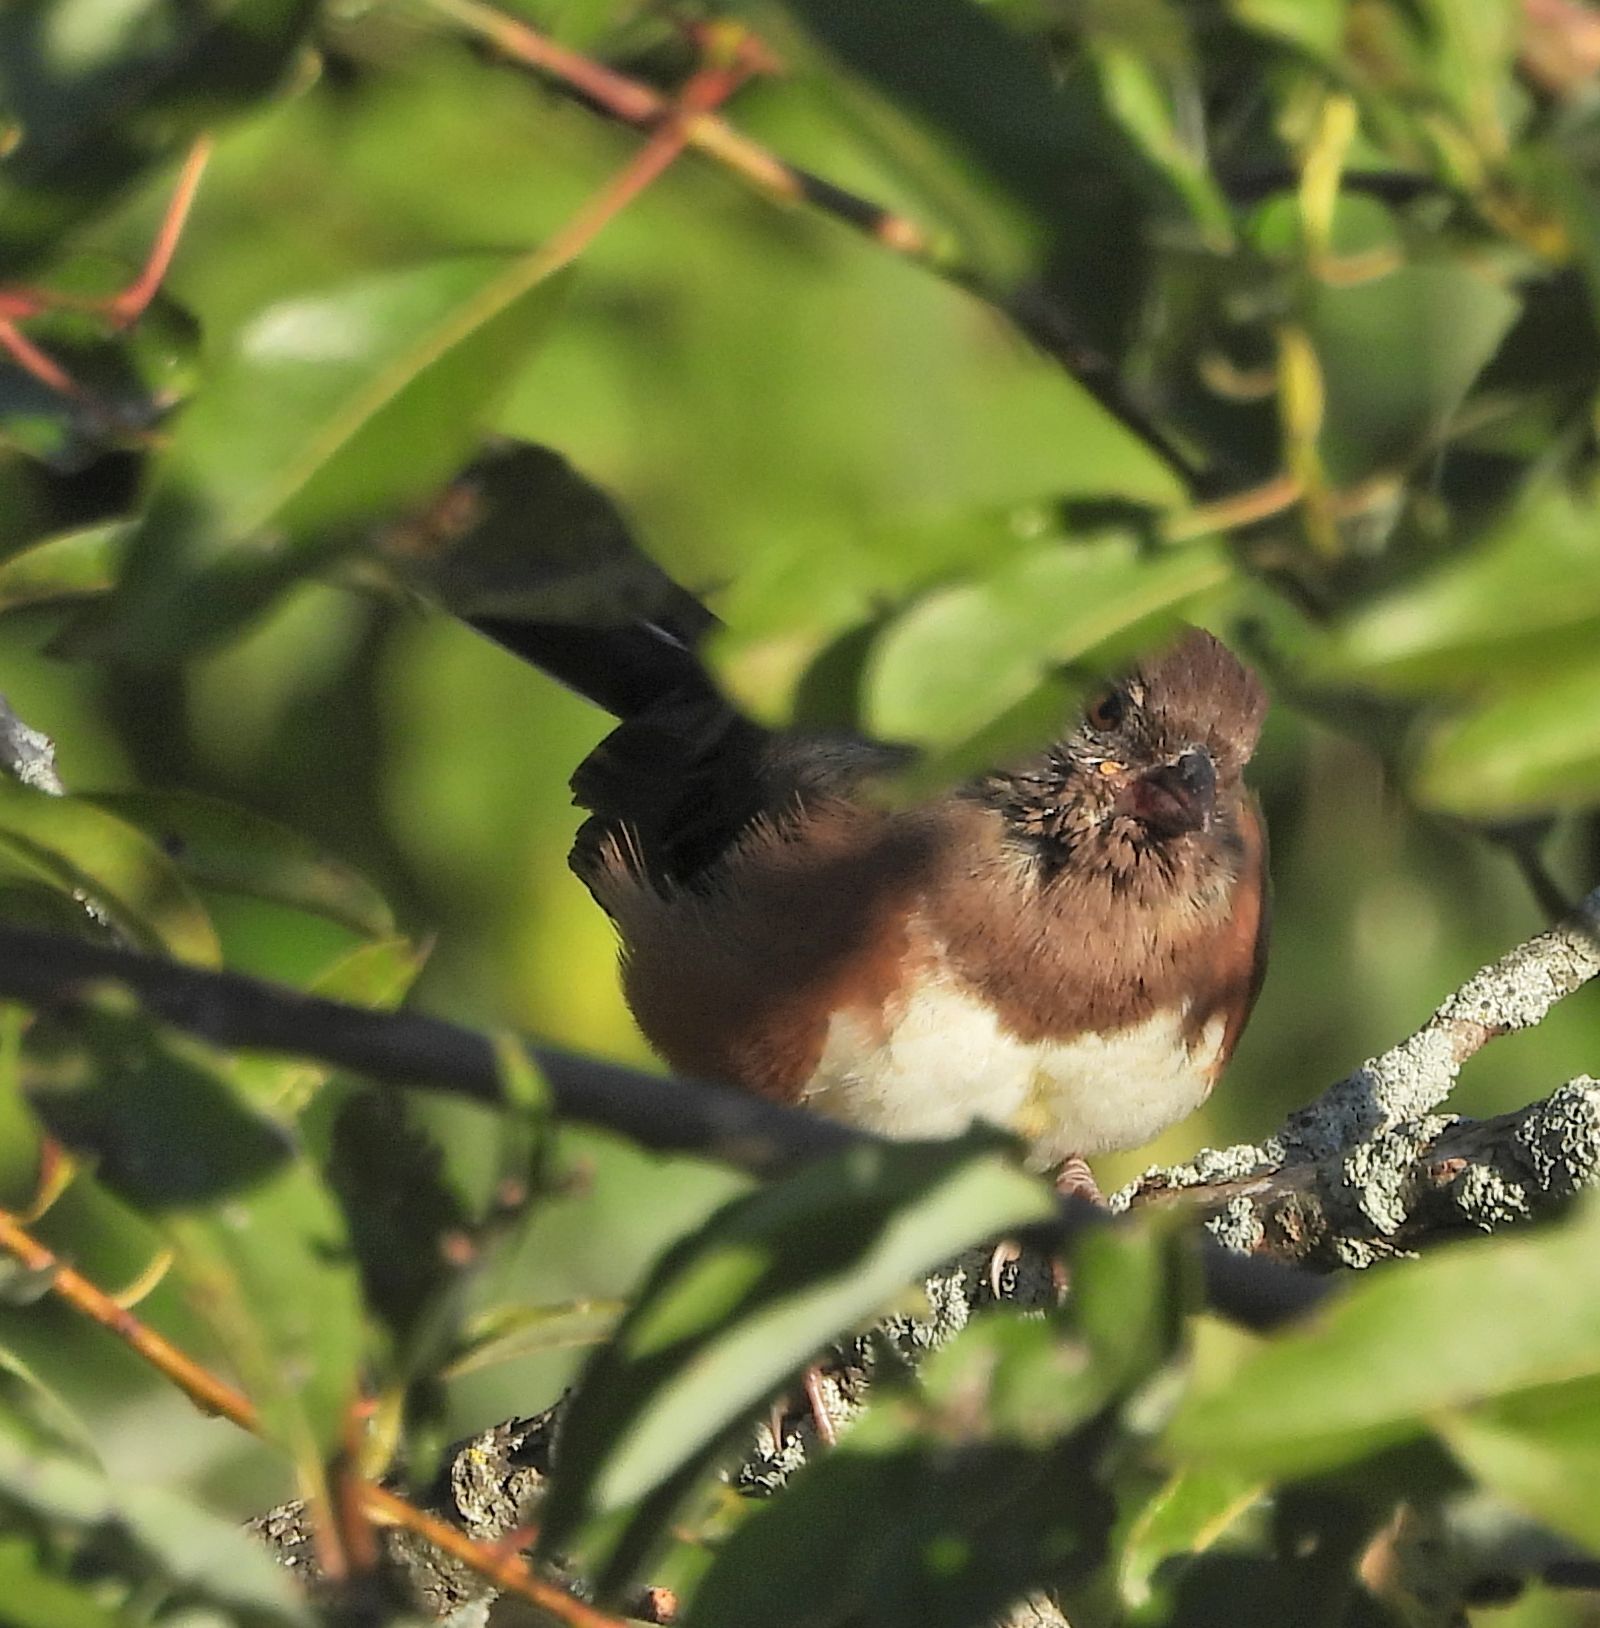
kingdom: Animalia
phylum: Chordata
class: Aves
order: Passeriformes
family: Passerellidae
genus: Pipilo
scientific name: Pipilo erythrophthalmus
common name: Eastern towhee
